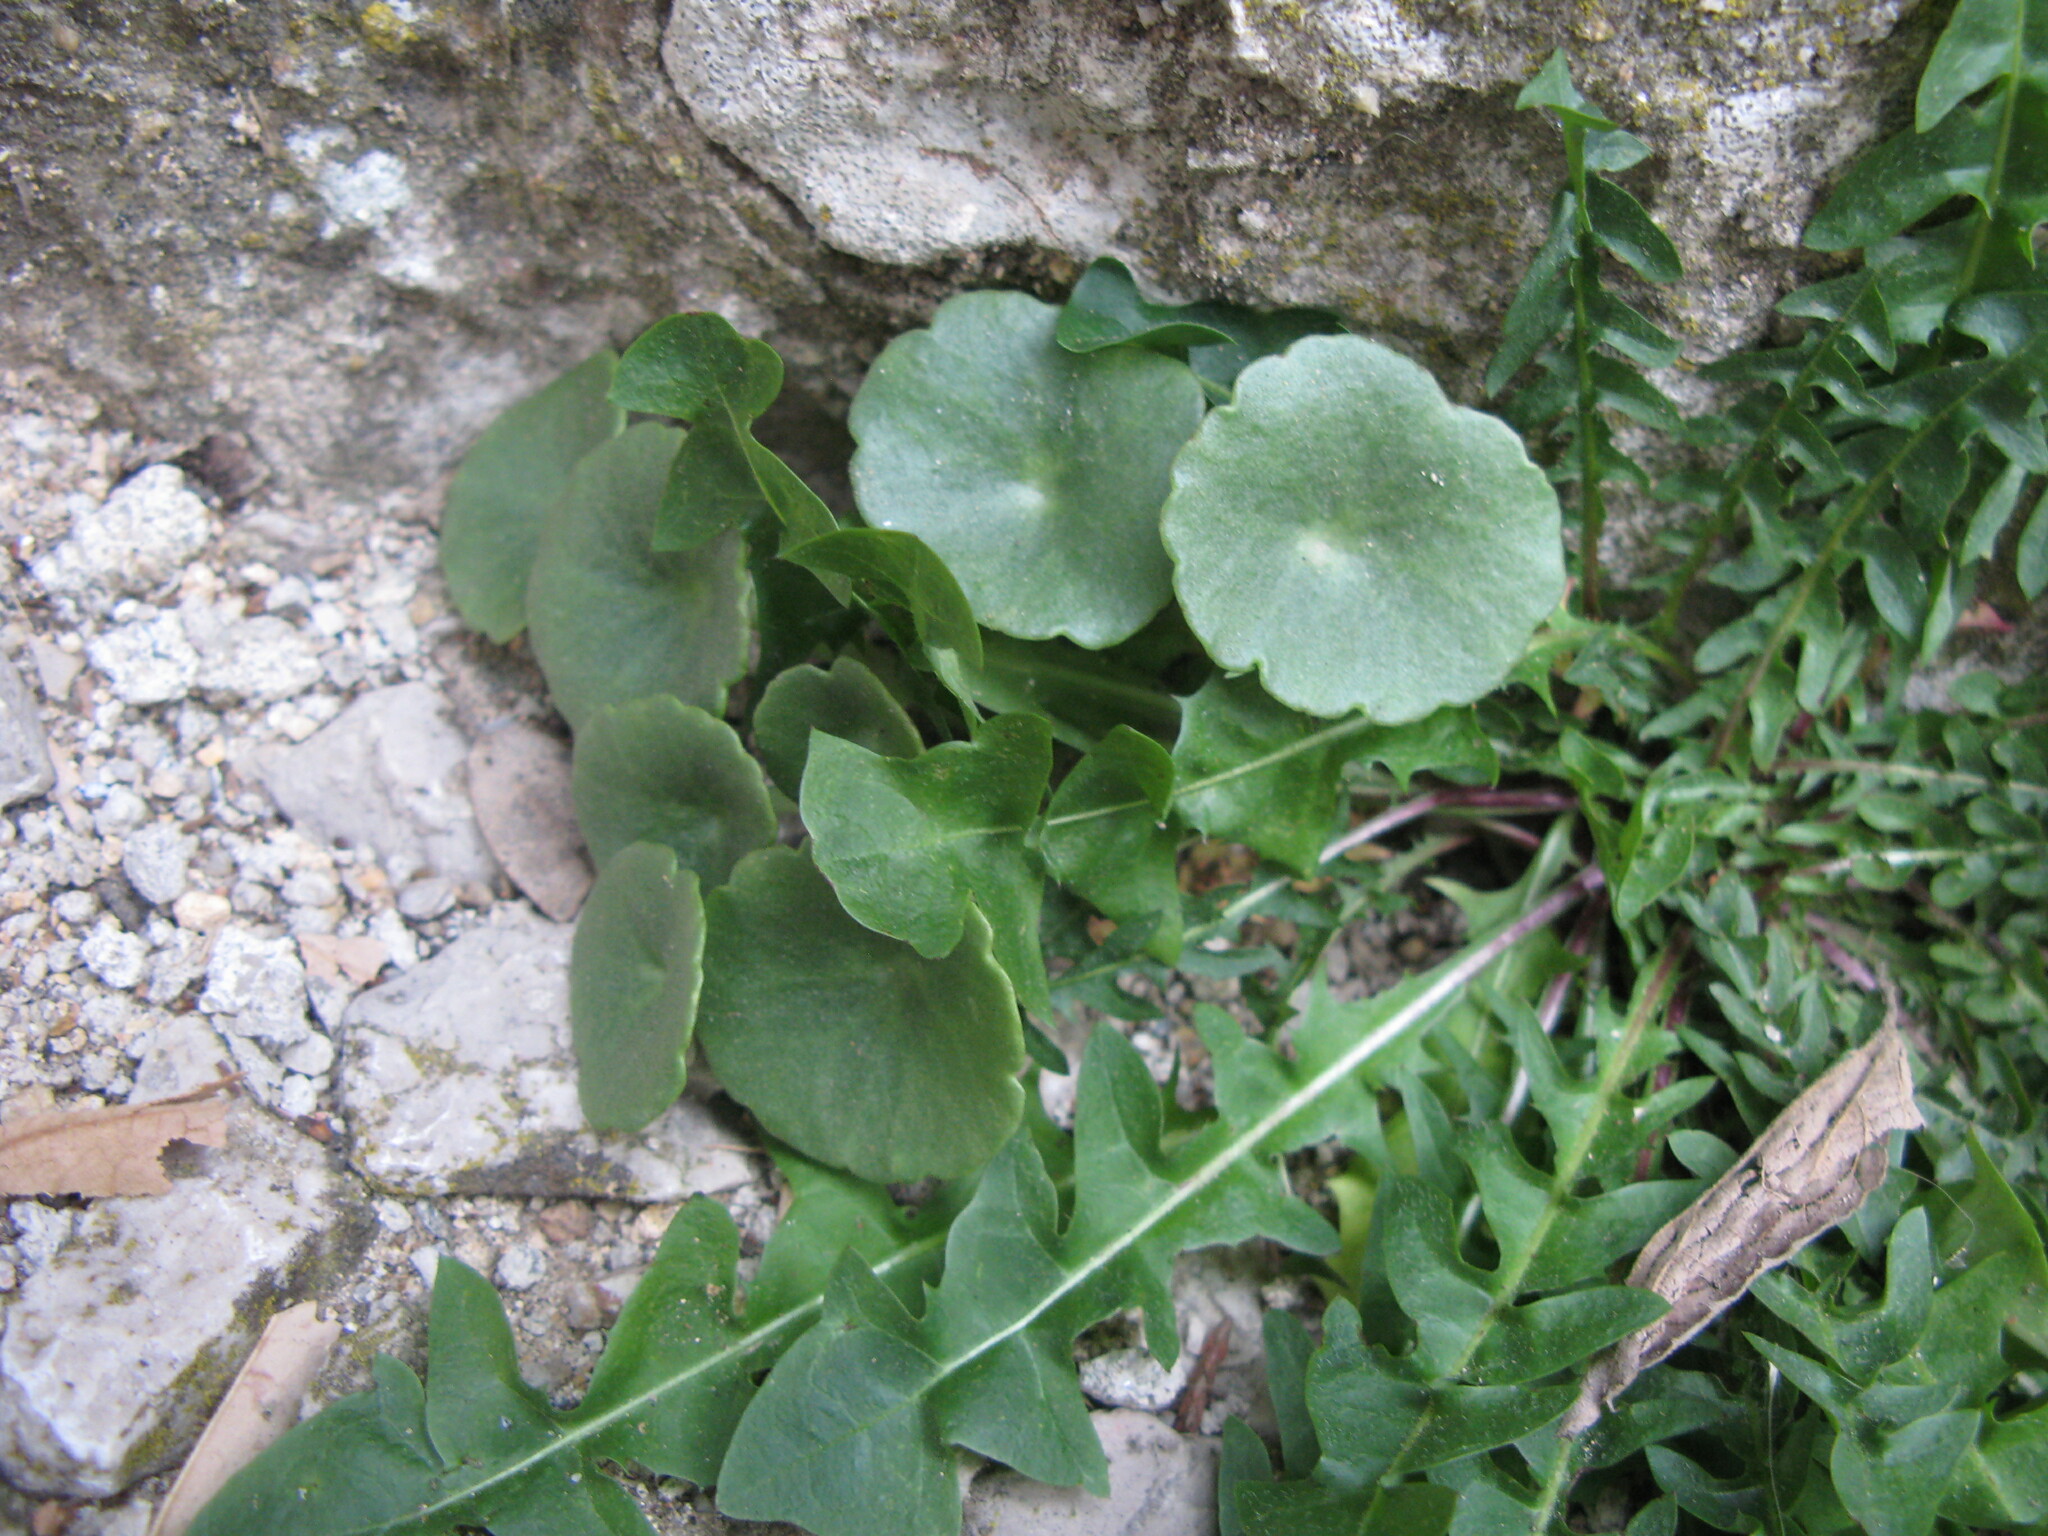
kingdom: Plantae
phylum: Tracheophyta
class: Magnoliopsida
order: Saxifragales
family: Crassulaceae
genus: Umbilicus
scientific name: Umbilicus rupestris
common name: Navelwort
